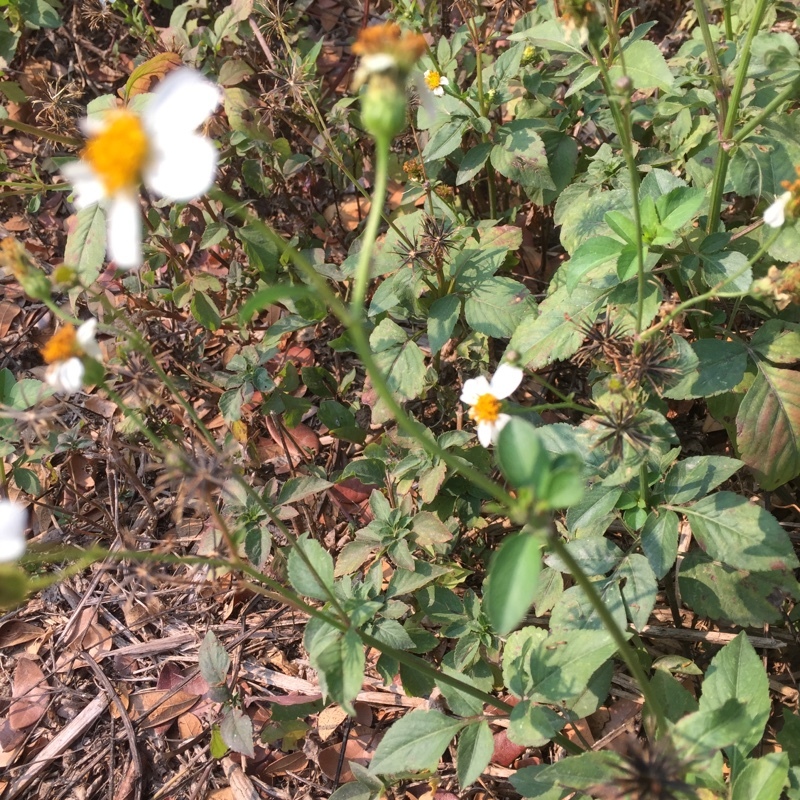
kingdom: Plantae
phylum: Tracheophyta
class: Magnoliopsida
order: Asterales
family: Asteraceae
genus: Bidens
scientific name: Bidens pilosa
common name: Black-jack
